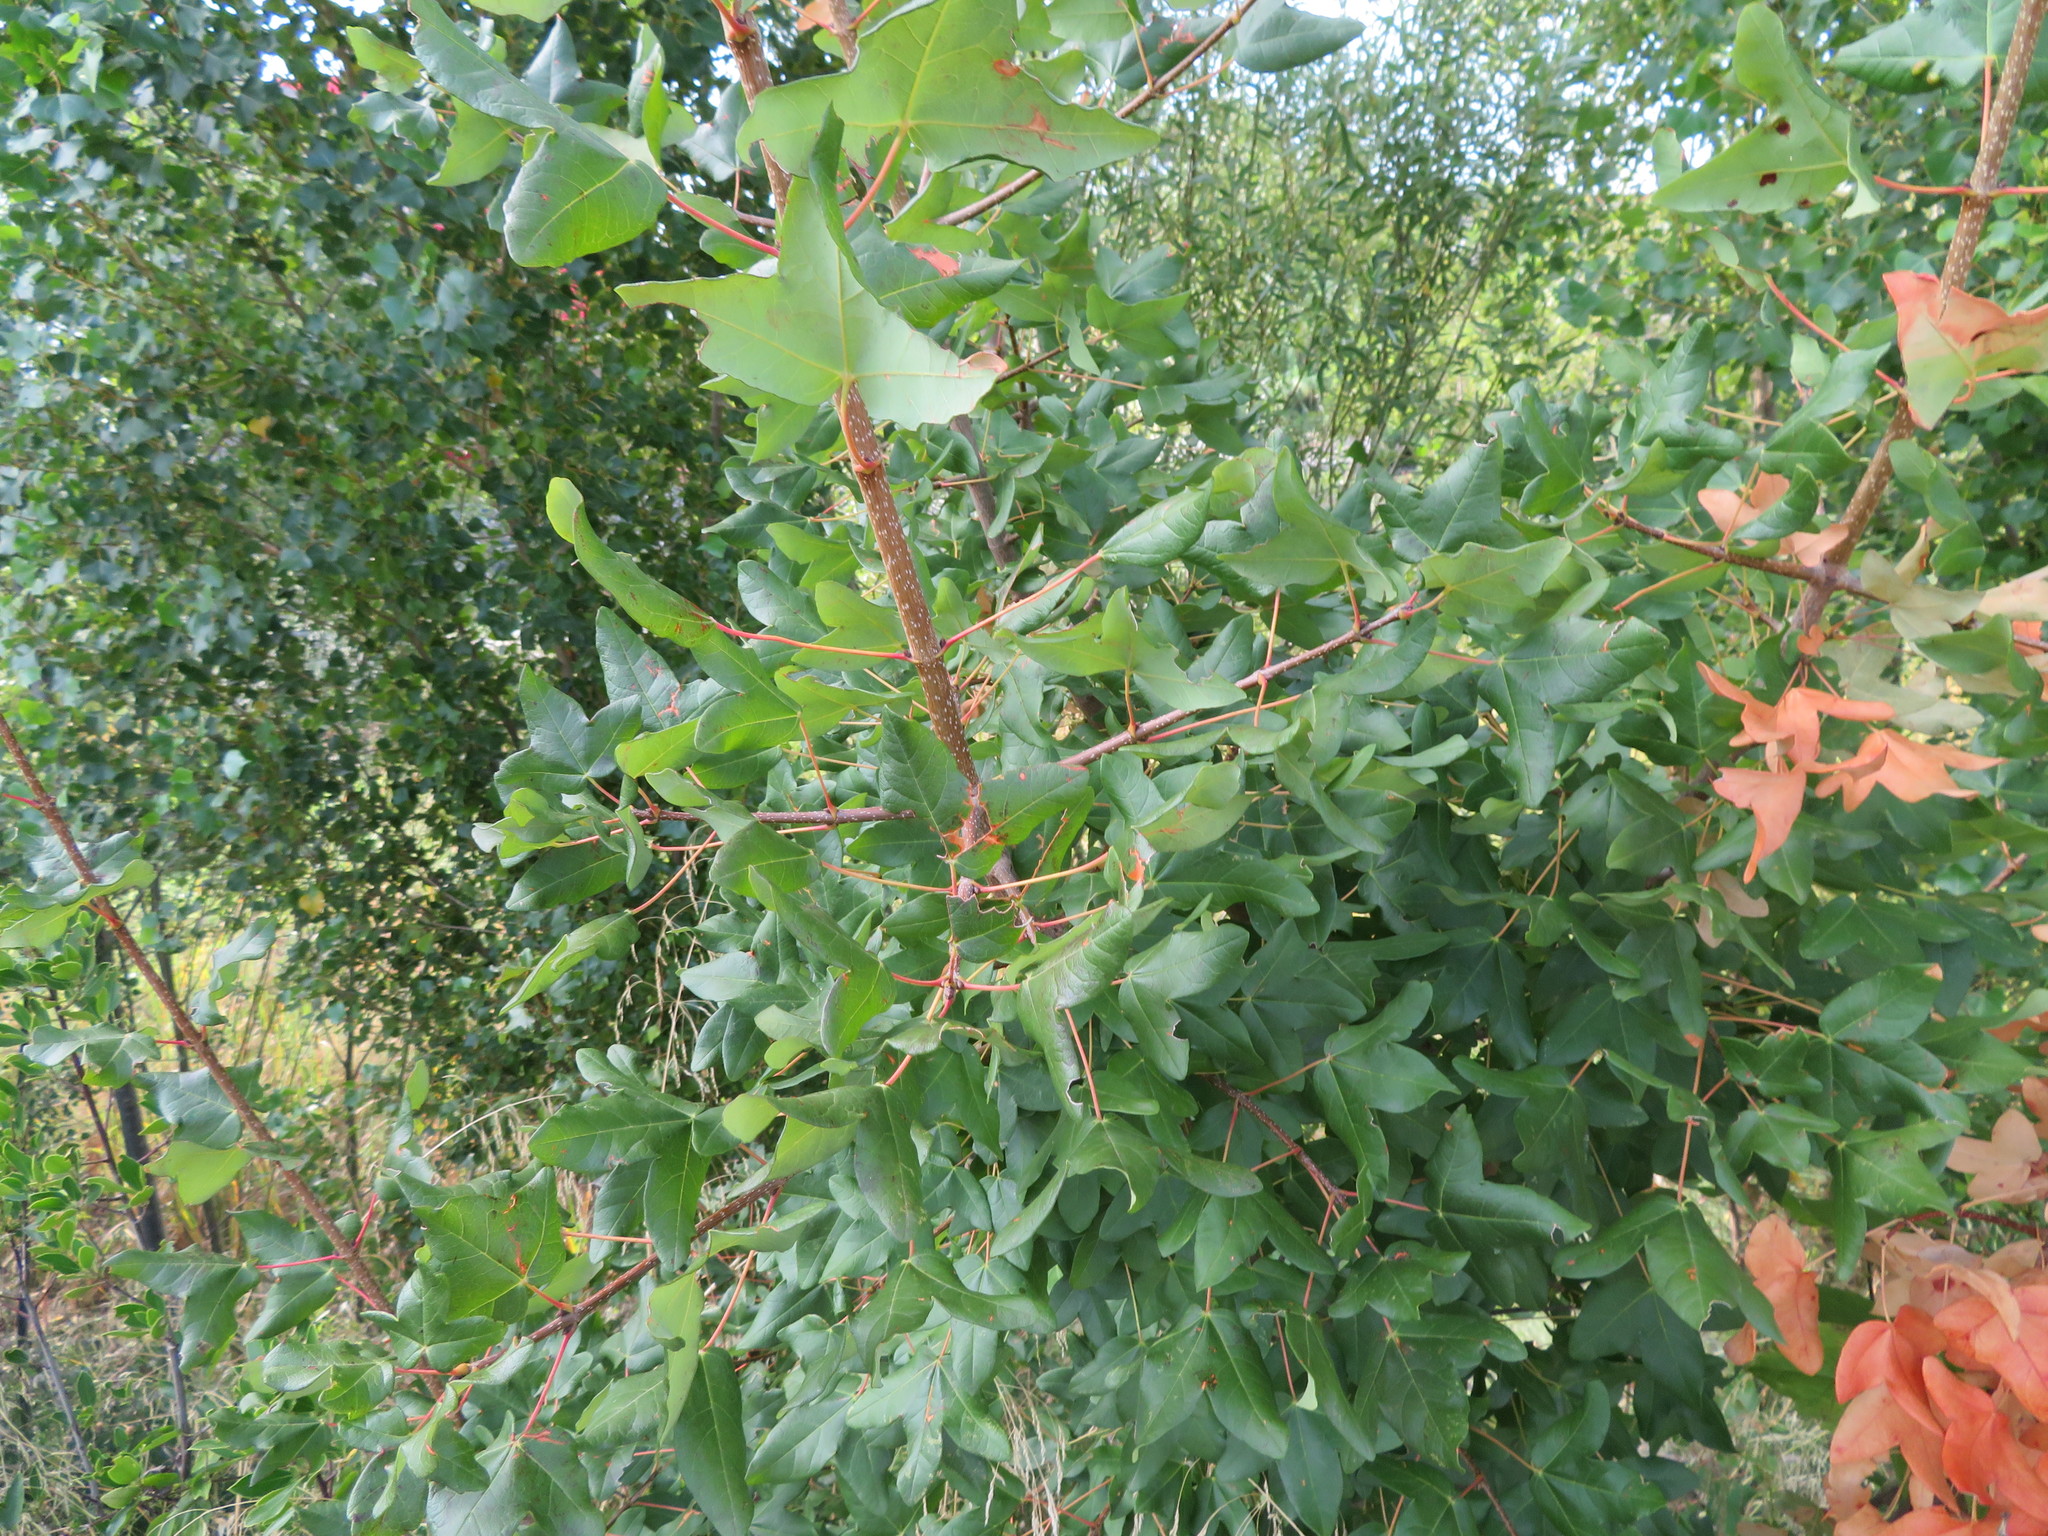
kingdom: Plantae
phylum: Tracheophyta
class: Magnoliopsida
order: Sapindales
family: Sapindaceae
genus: Acer
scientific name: Acer monspessulanum
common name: Montpellier maple
